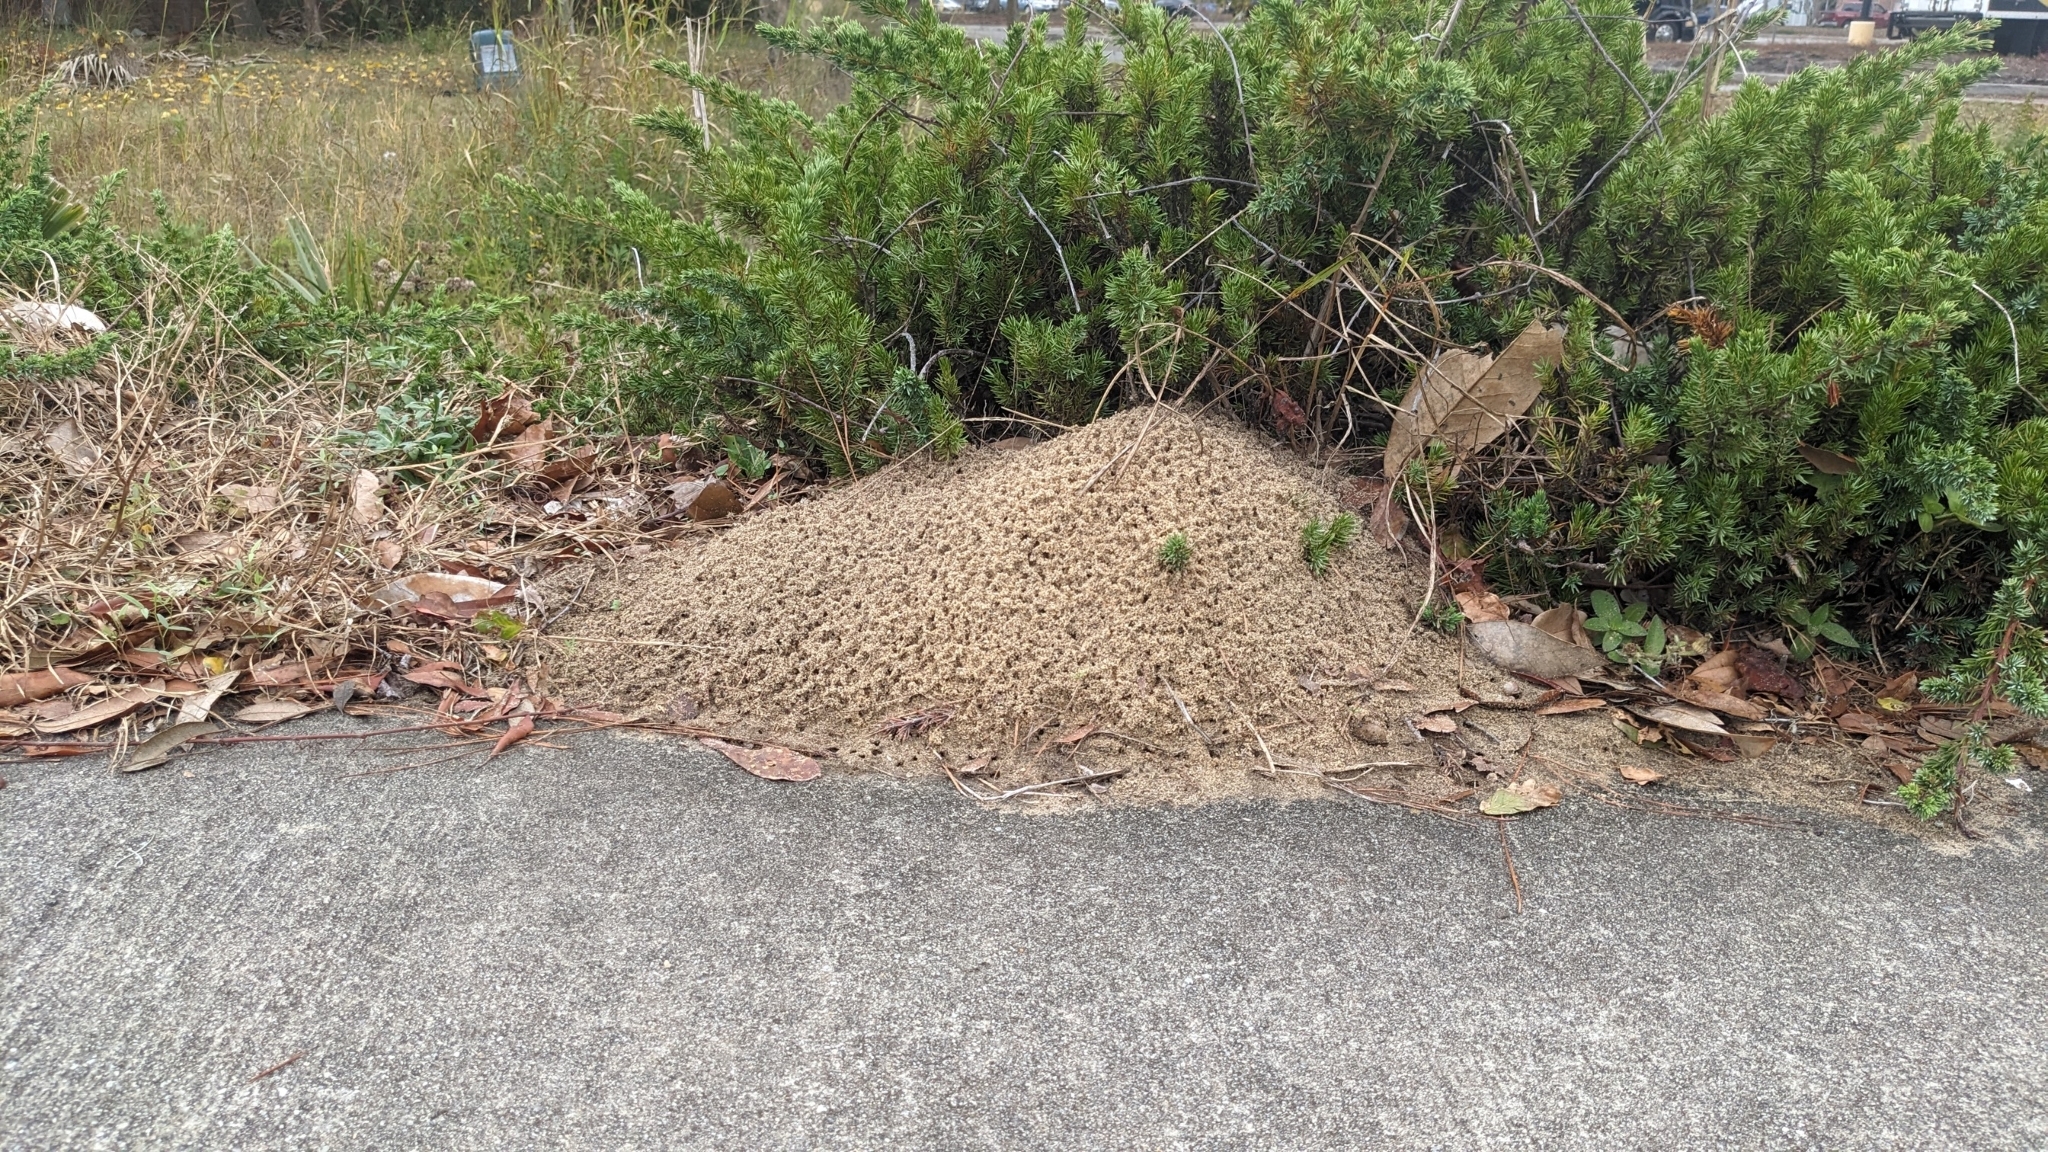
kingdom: Animalia
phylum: Arthropoda
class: Insecta
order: Hymenoptera
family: Formicidae
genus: Solenopsis
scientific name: Solenopsis invicta
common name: Red imported fire ant
